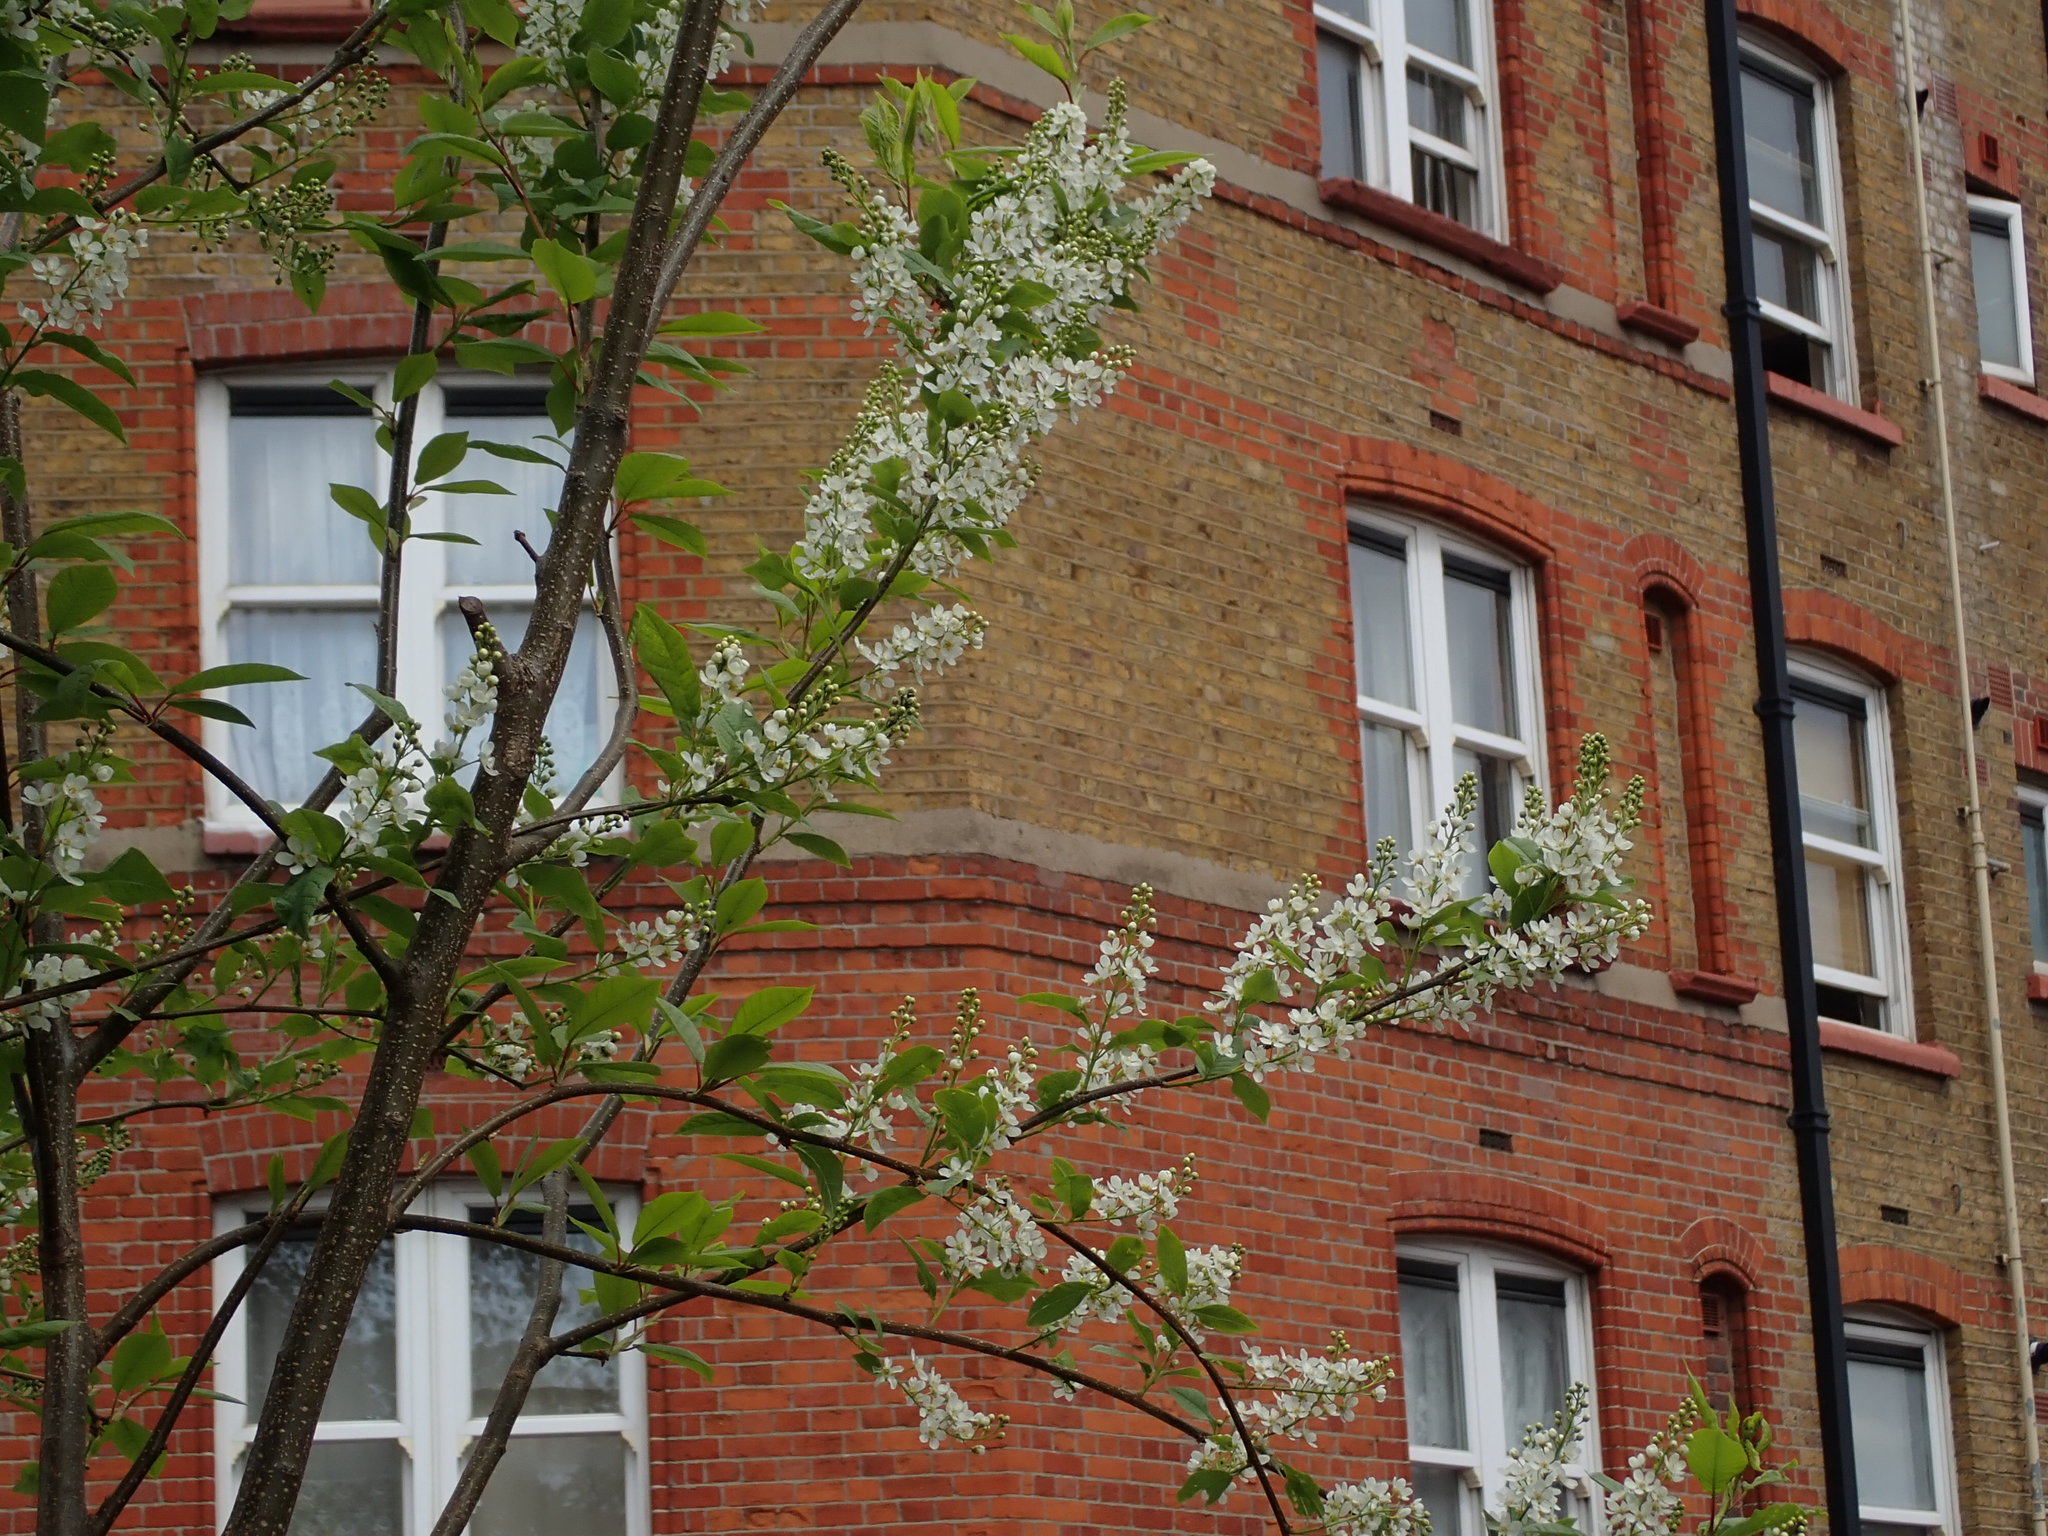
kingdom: Plantae
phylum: Tracheophyta
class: Magnoliopsida
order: Rosales
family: Rosaceae
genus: Prunus
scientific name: Prunus padus
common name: Bird cherry
